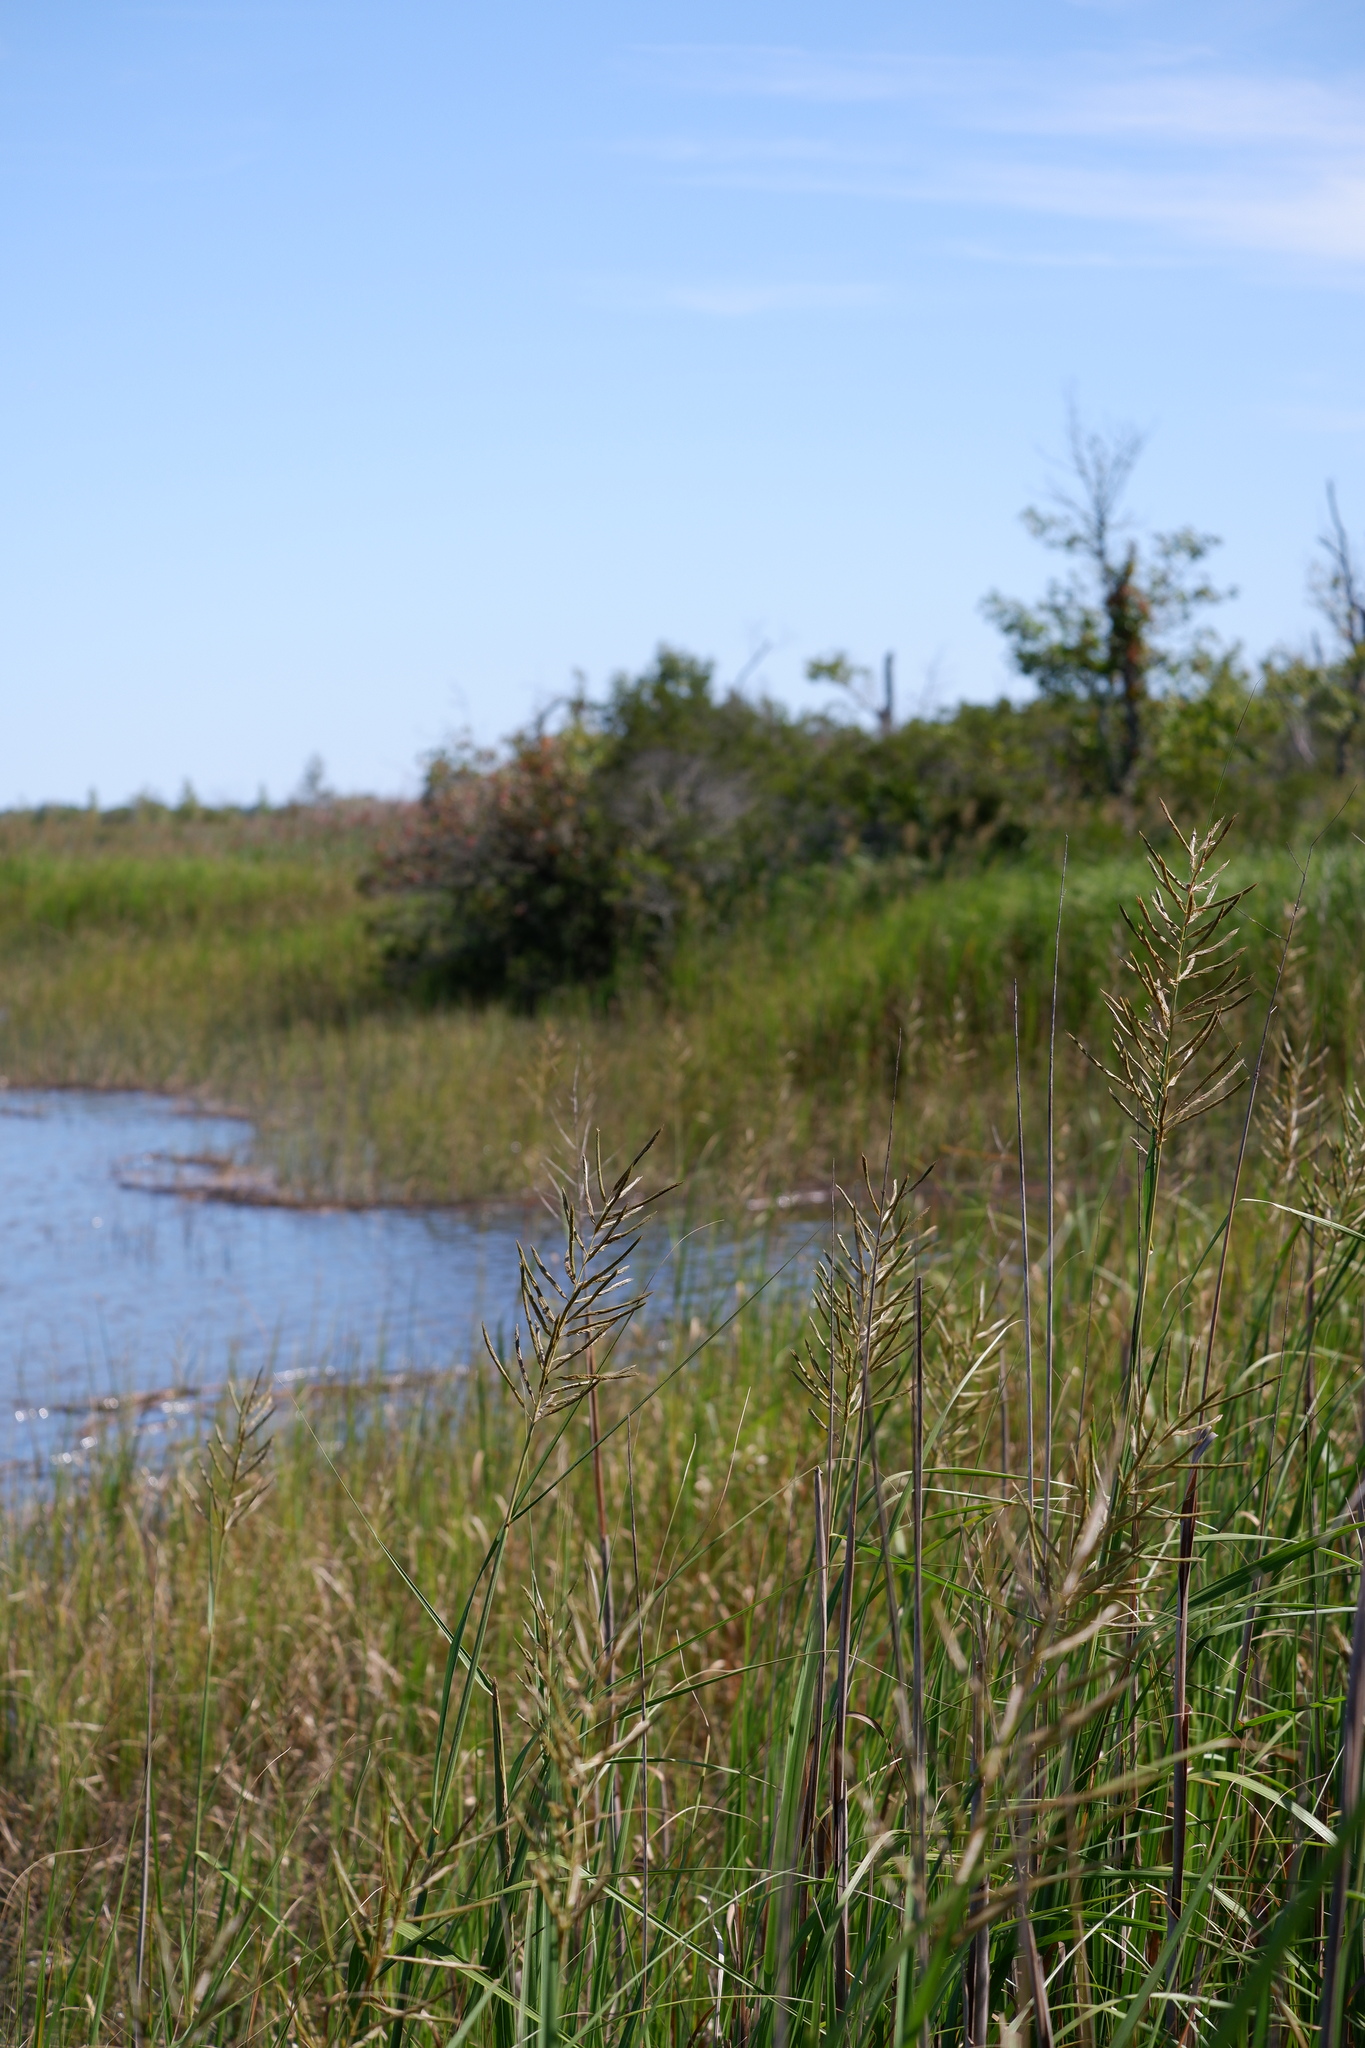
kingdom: Plantae
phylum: Tracheophyta
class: Liliopsida
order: Poales
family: Poaceae
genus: Sporobolus
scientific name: Sporobolus cynosuroides
